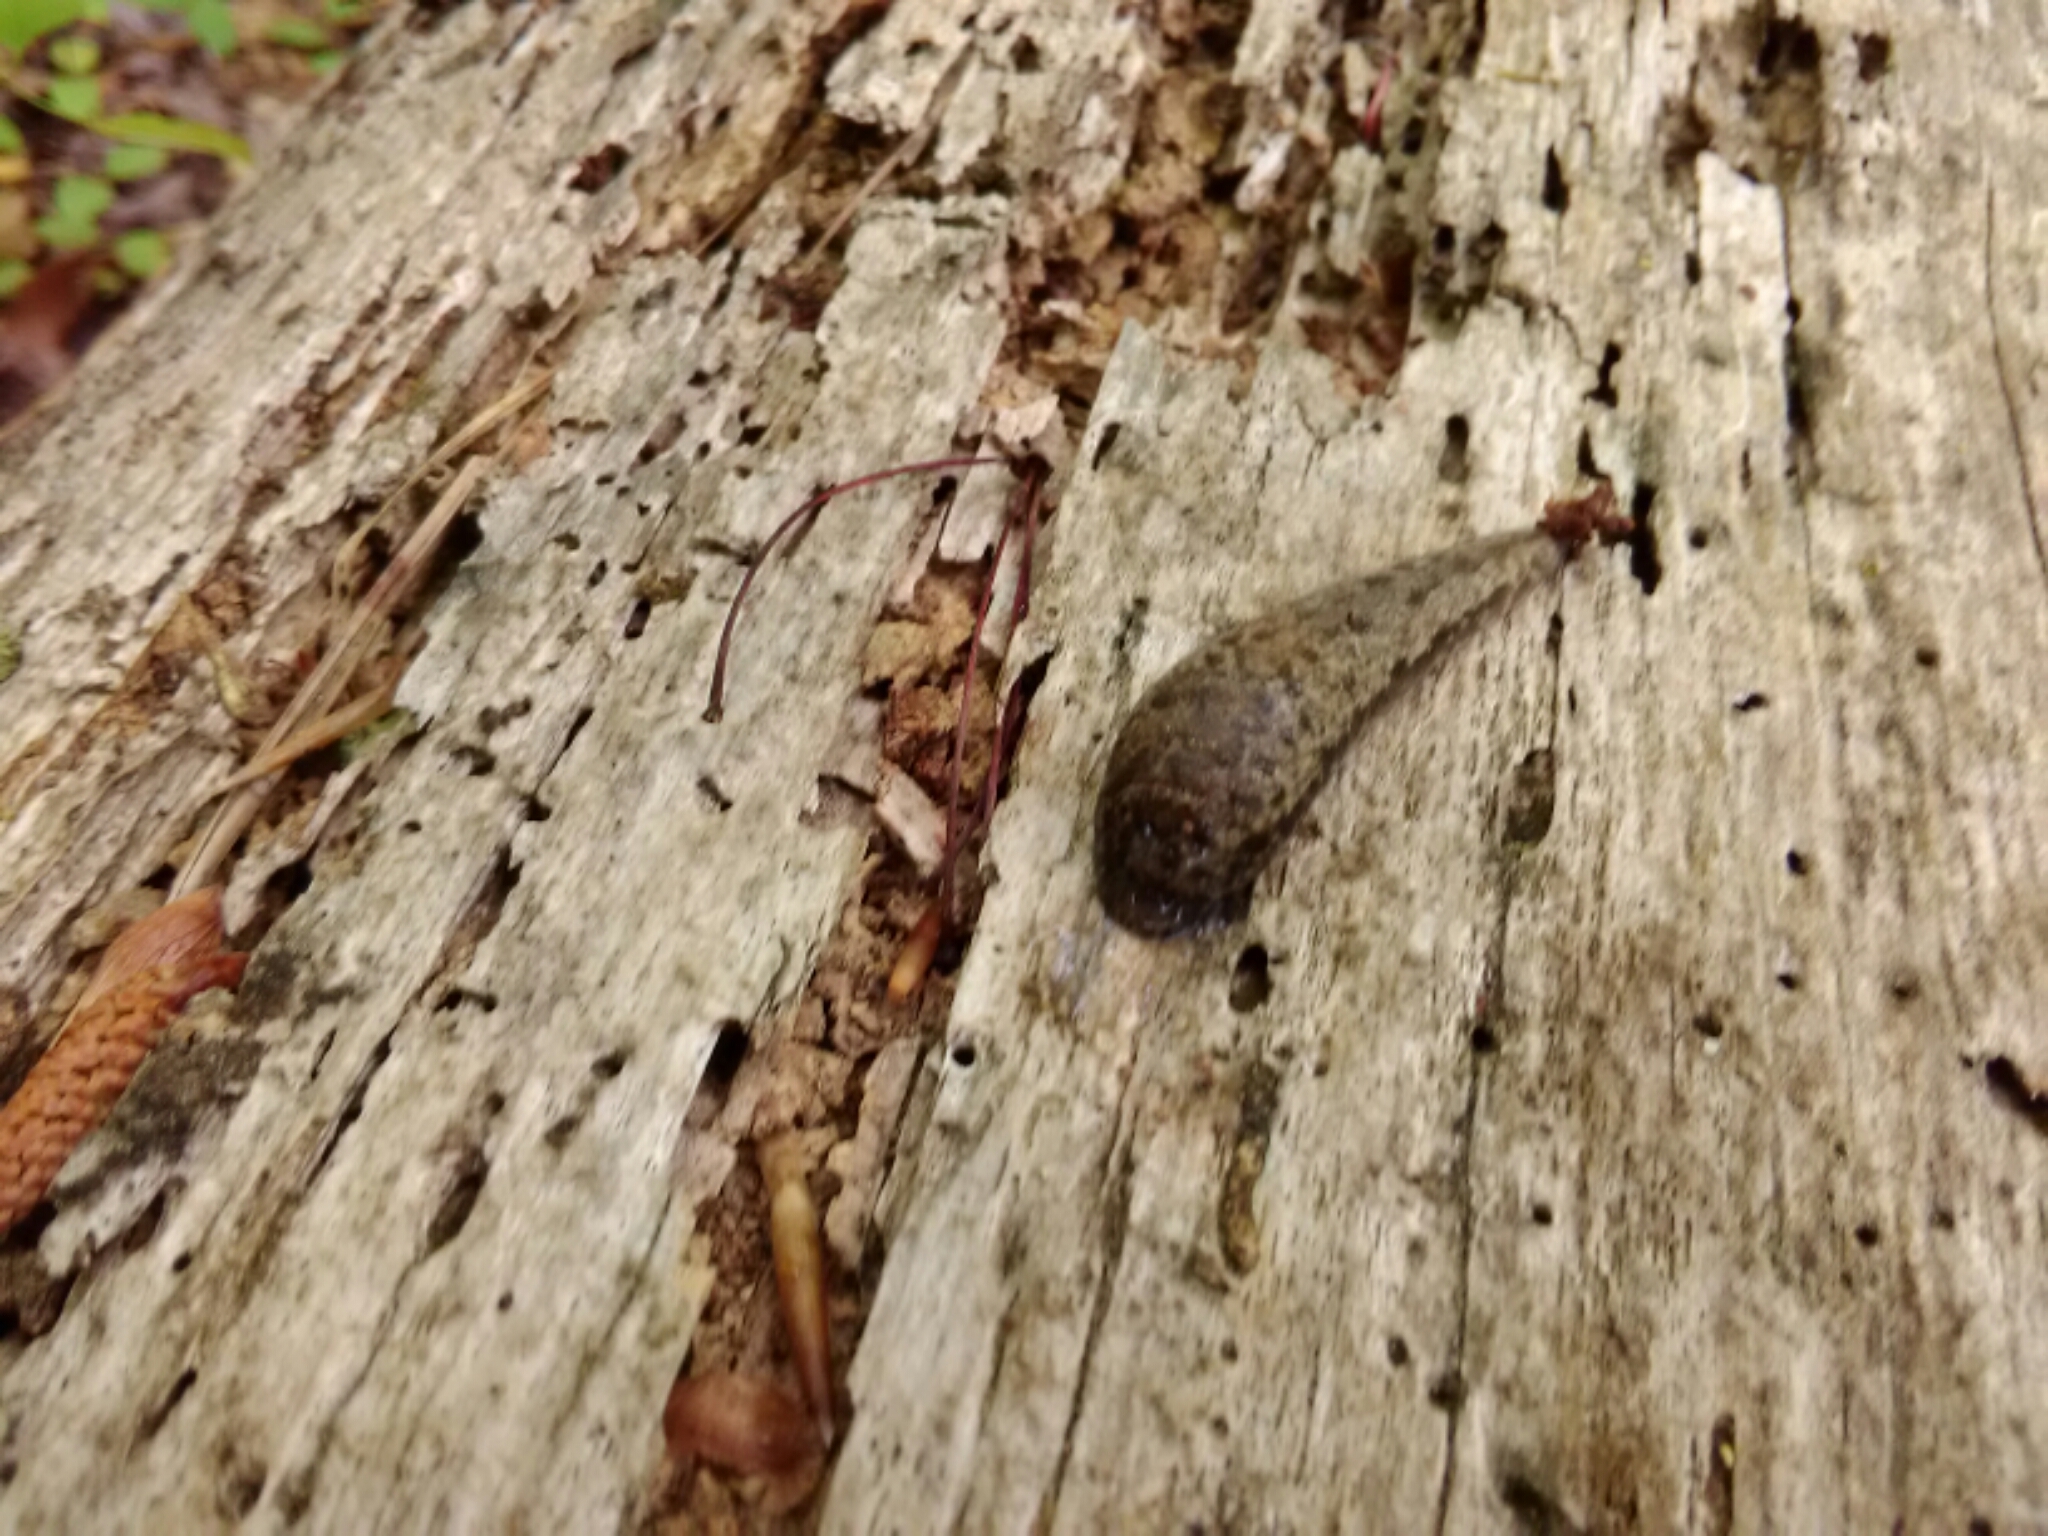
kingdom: Animalia
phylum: Mollusca
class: Gastropoda
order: Stylommatophora
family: Philomycidae
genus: Megapallifera
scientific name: Megapallifera mutabilis
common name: Changeable mantleslug
